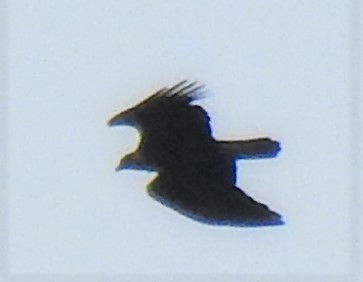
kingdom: Animalia
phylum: Chordata
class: Aves
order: Accipitriformes
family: Accipitridae
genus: Haliaeetus
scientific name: Haliaeetus leucocephalus
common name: Bald eagle
